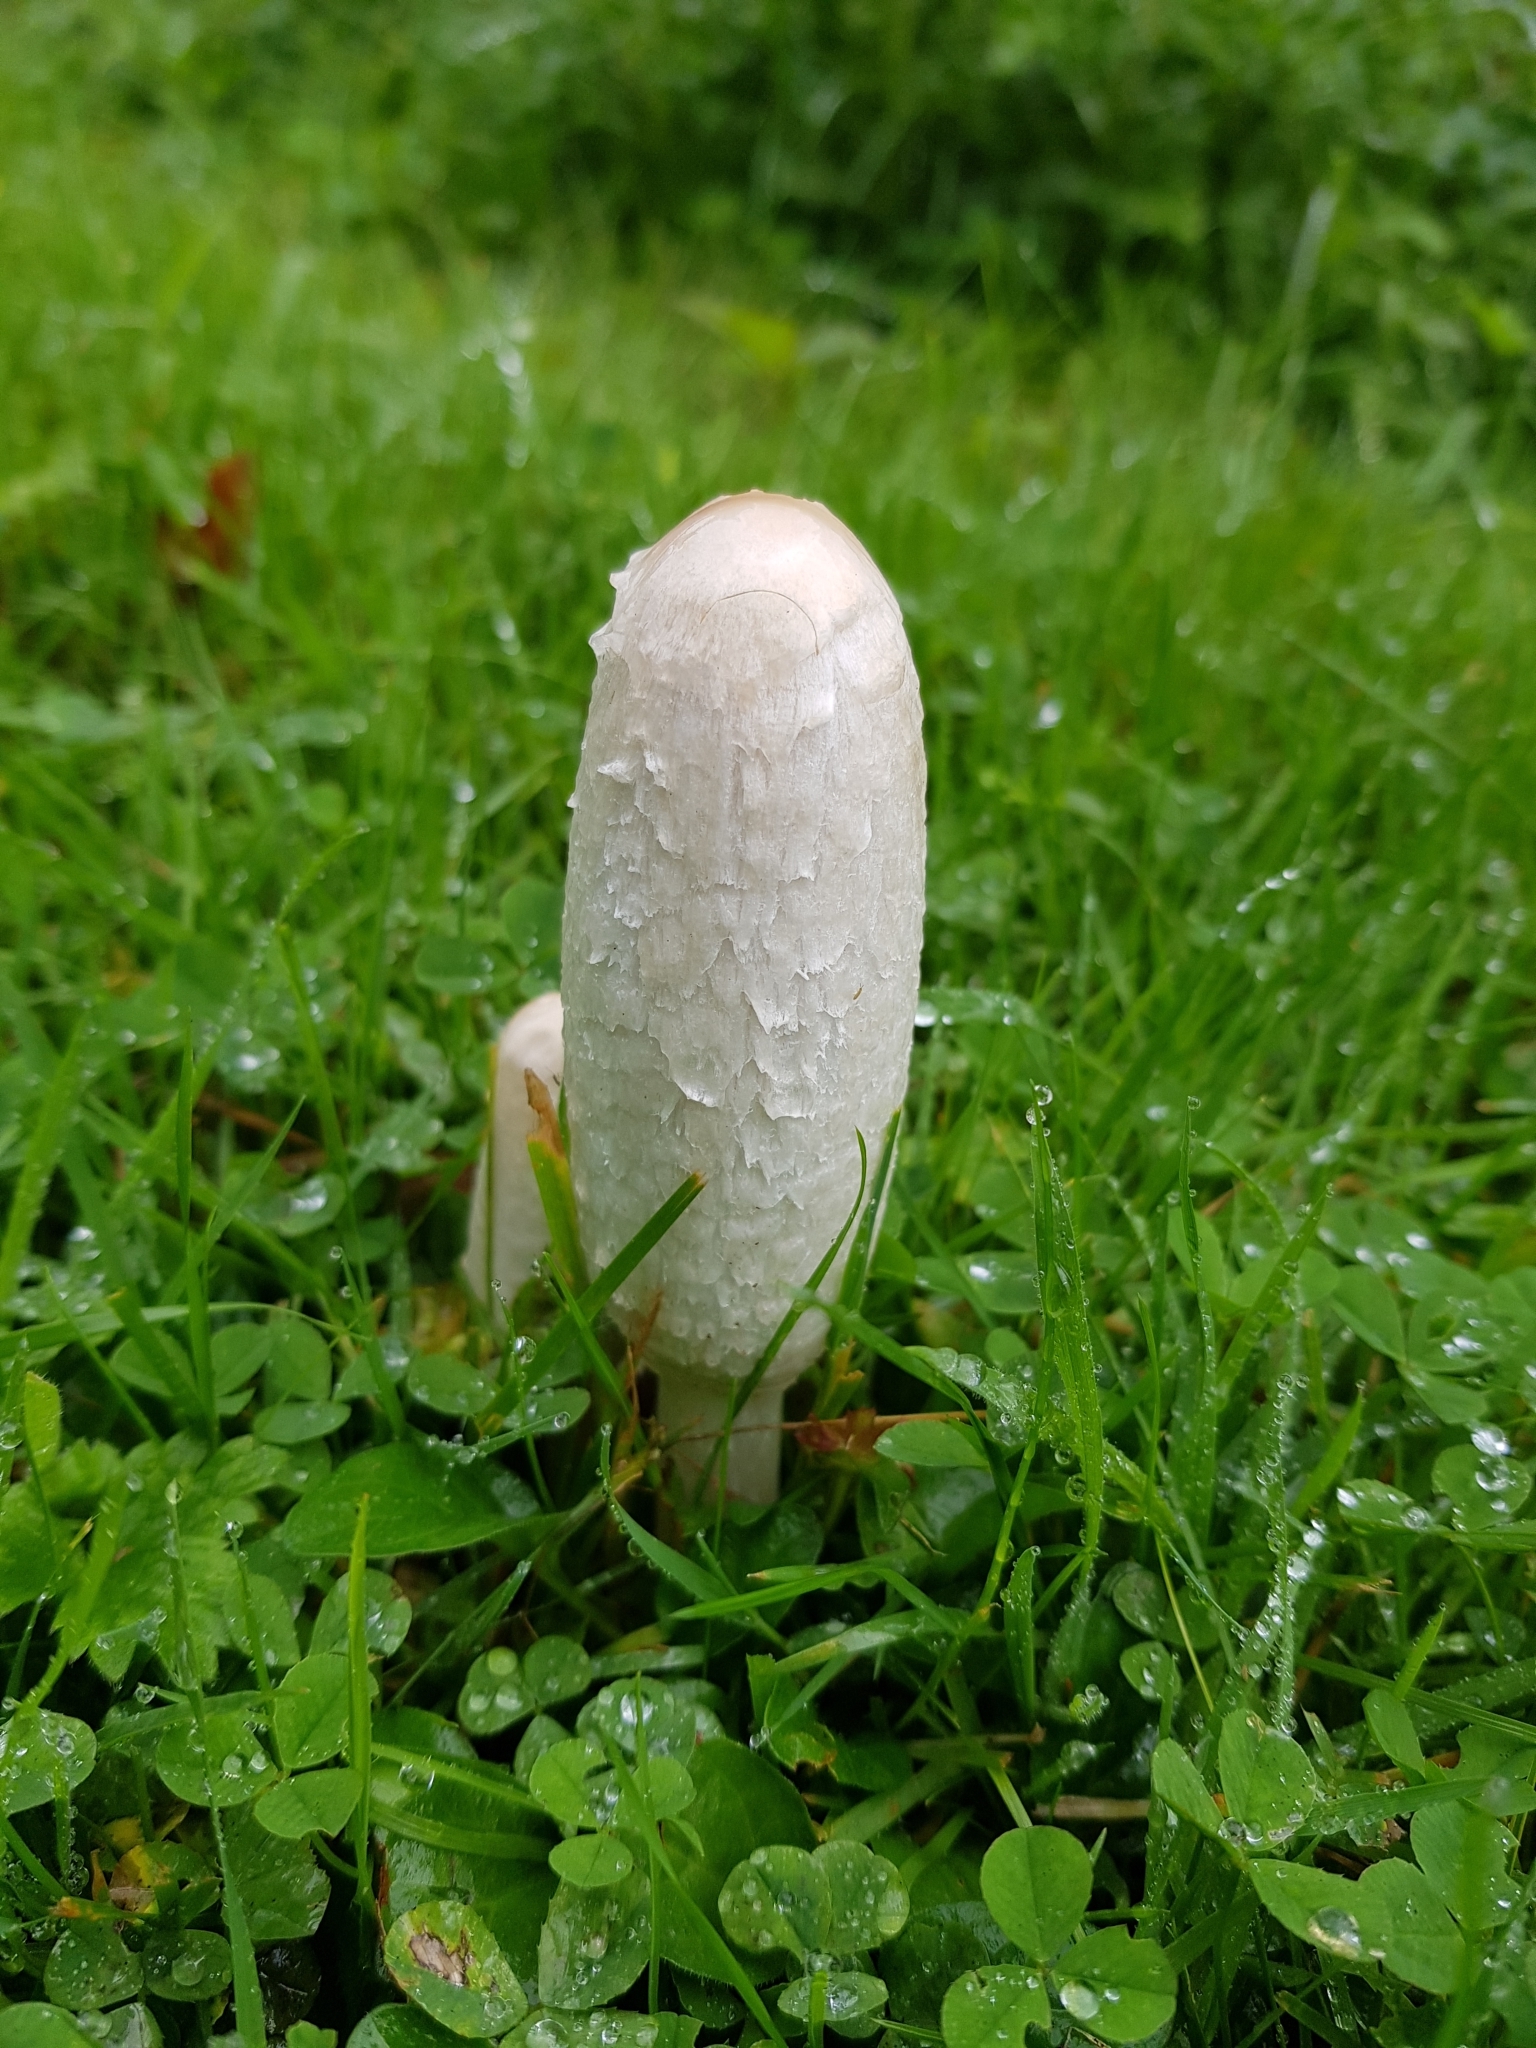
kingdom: Fungi
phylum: Basidiomycota
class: Agaricomycetes
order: Agaricales
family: Agaricaceae
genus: Coprinus
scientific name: Coprinus comatus
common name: Lawyer's wig
